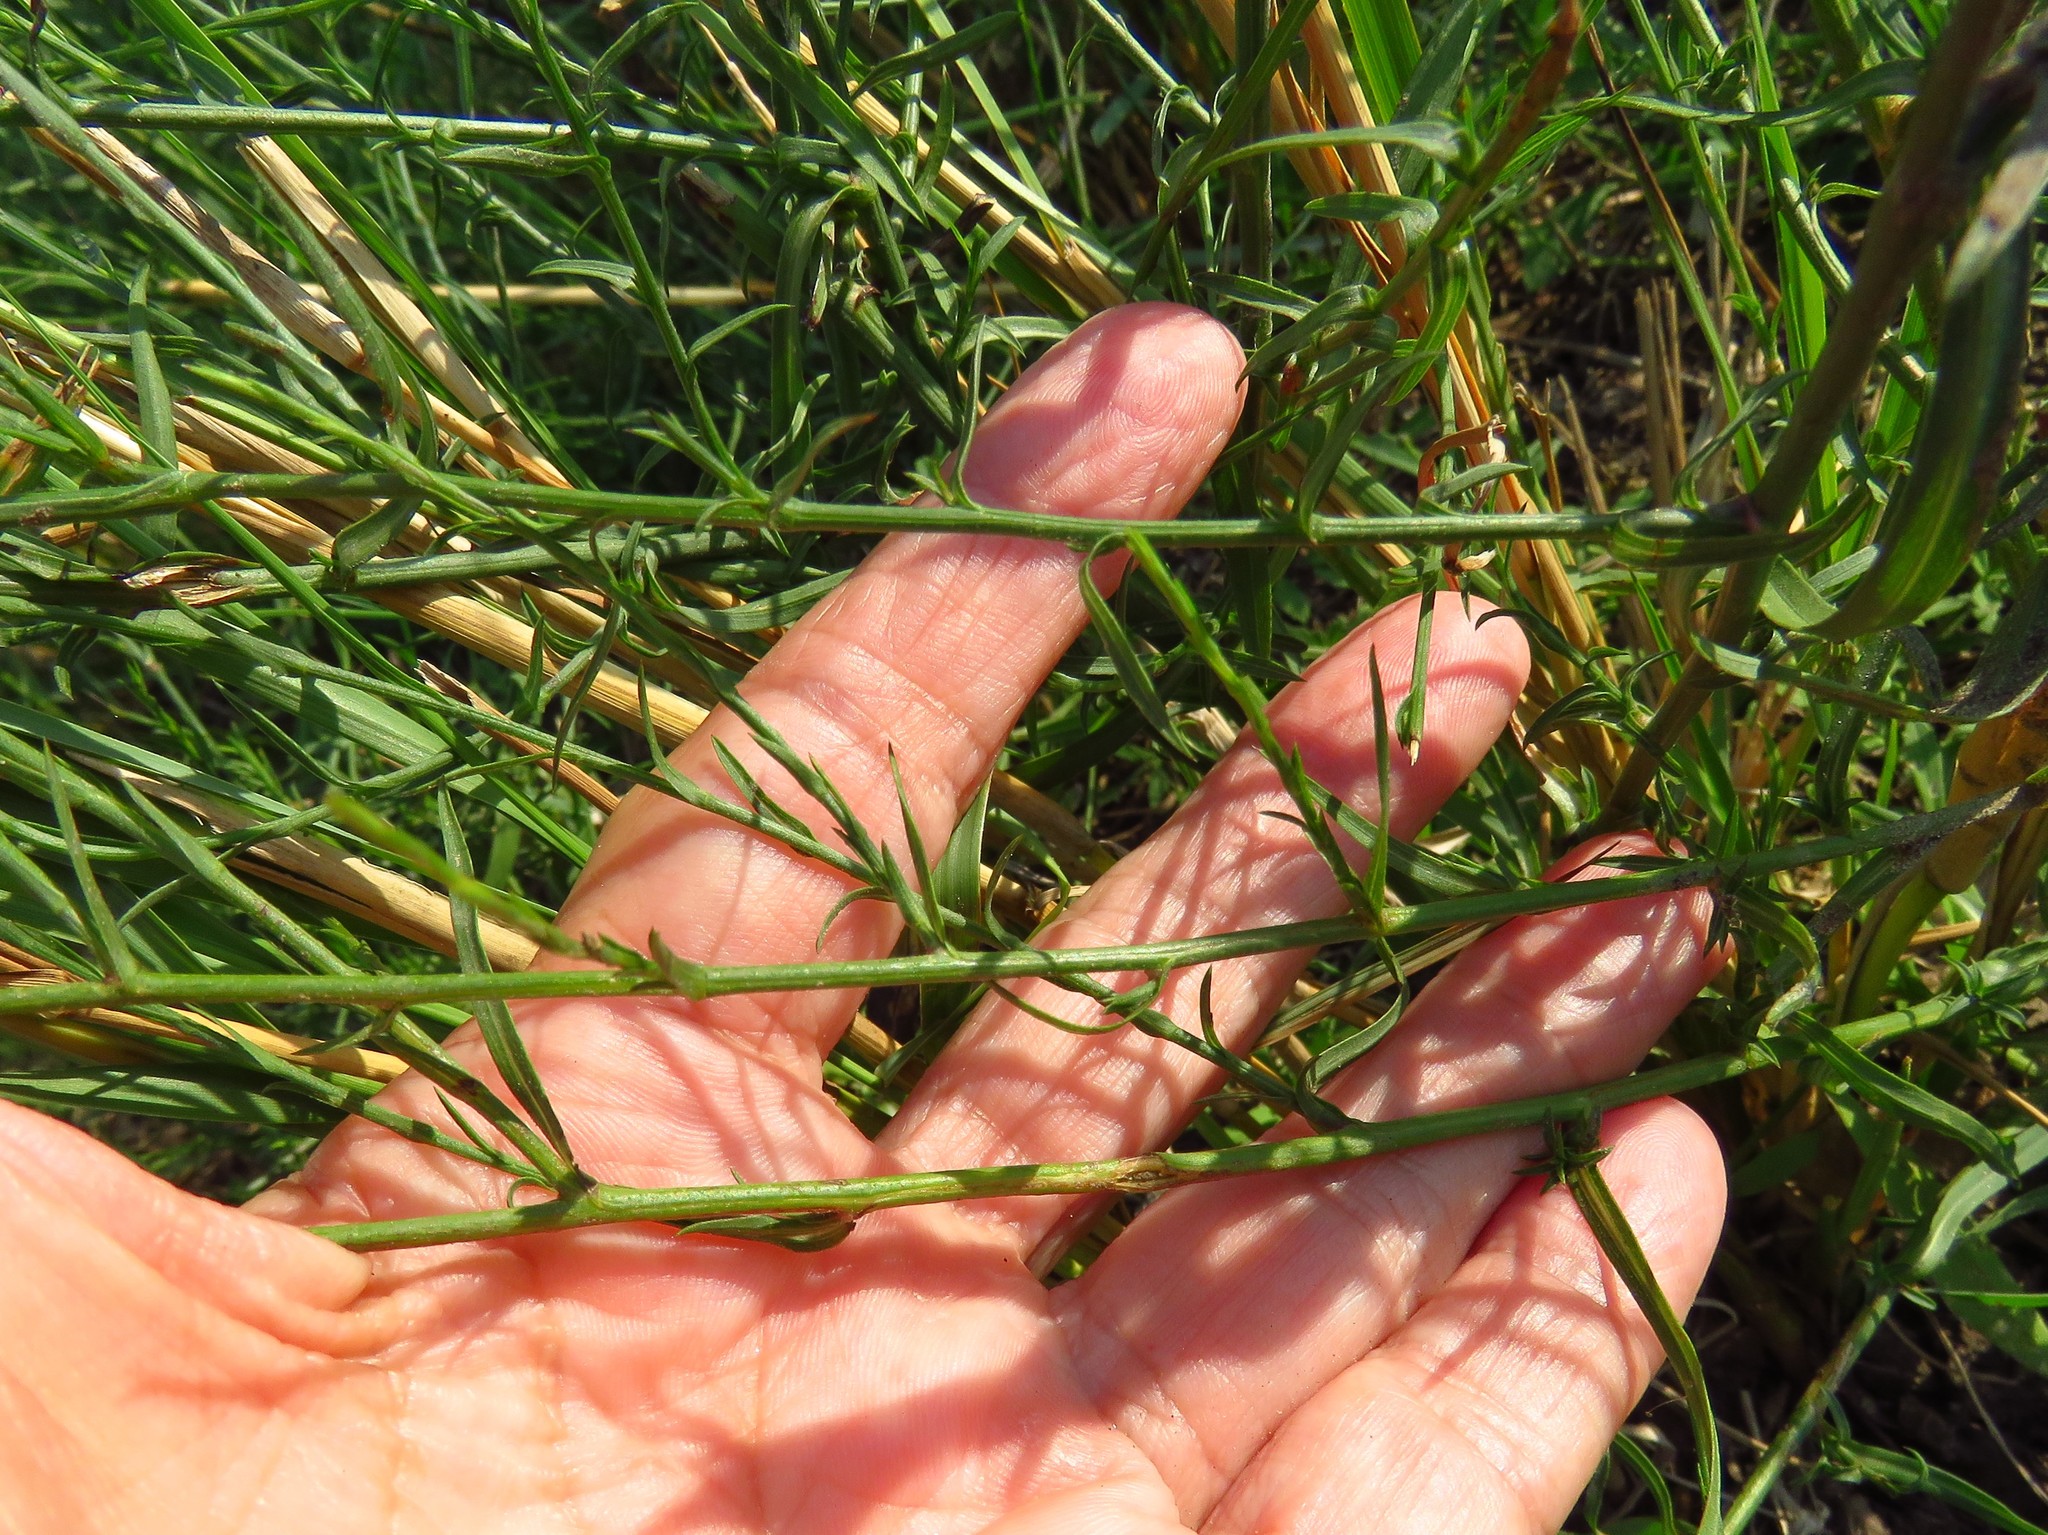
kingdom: Plantae
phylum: Tracheophyta
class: Magnoliopsida
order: Asterales
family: Asteraceae
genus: Symphyotrichum
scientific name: Symphyotrichum divaricatum
